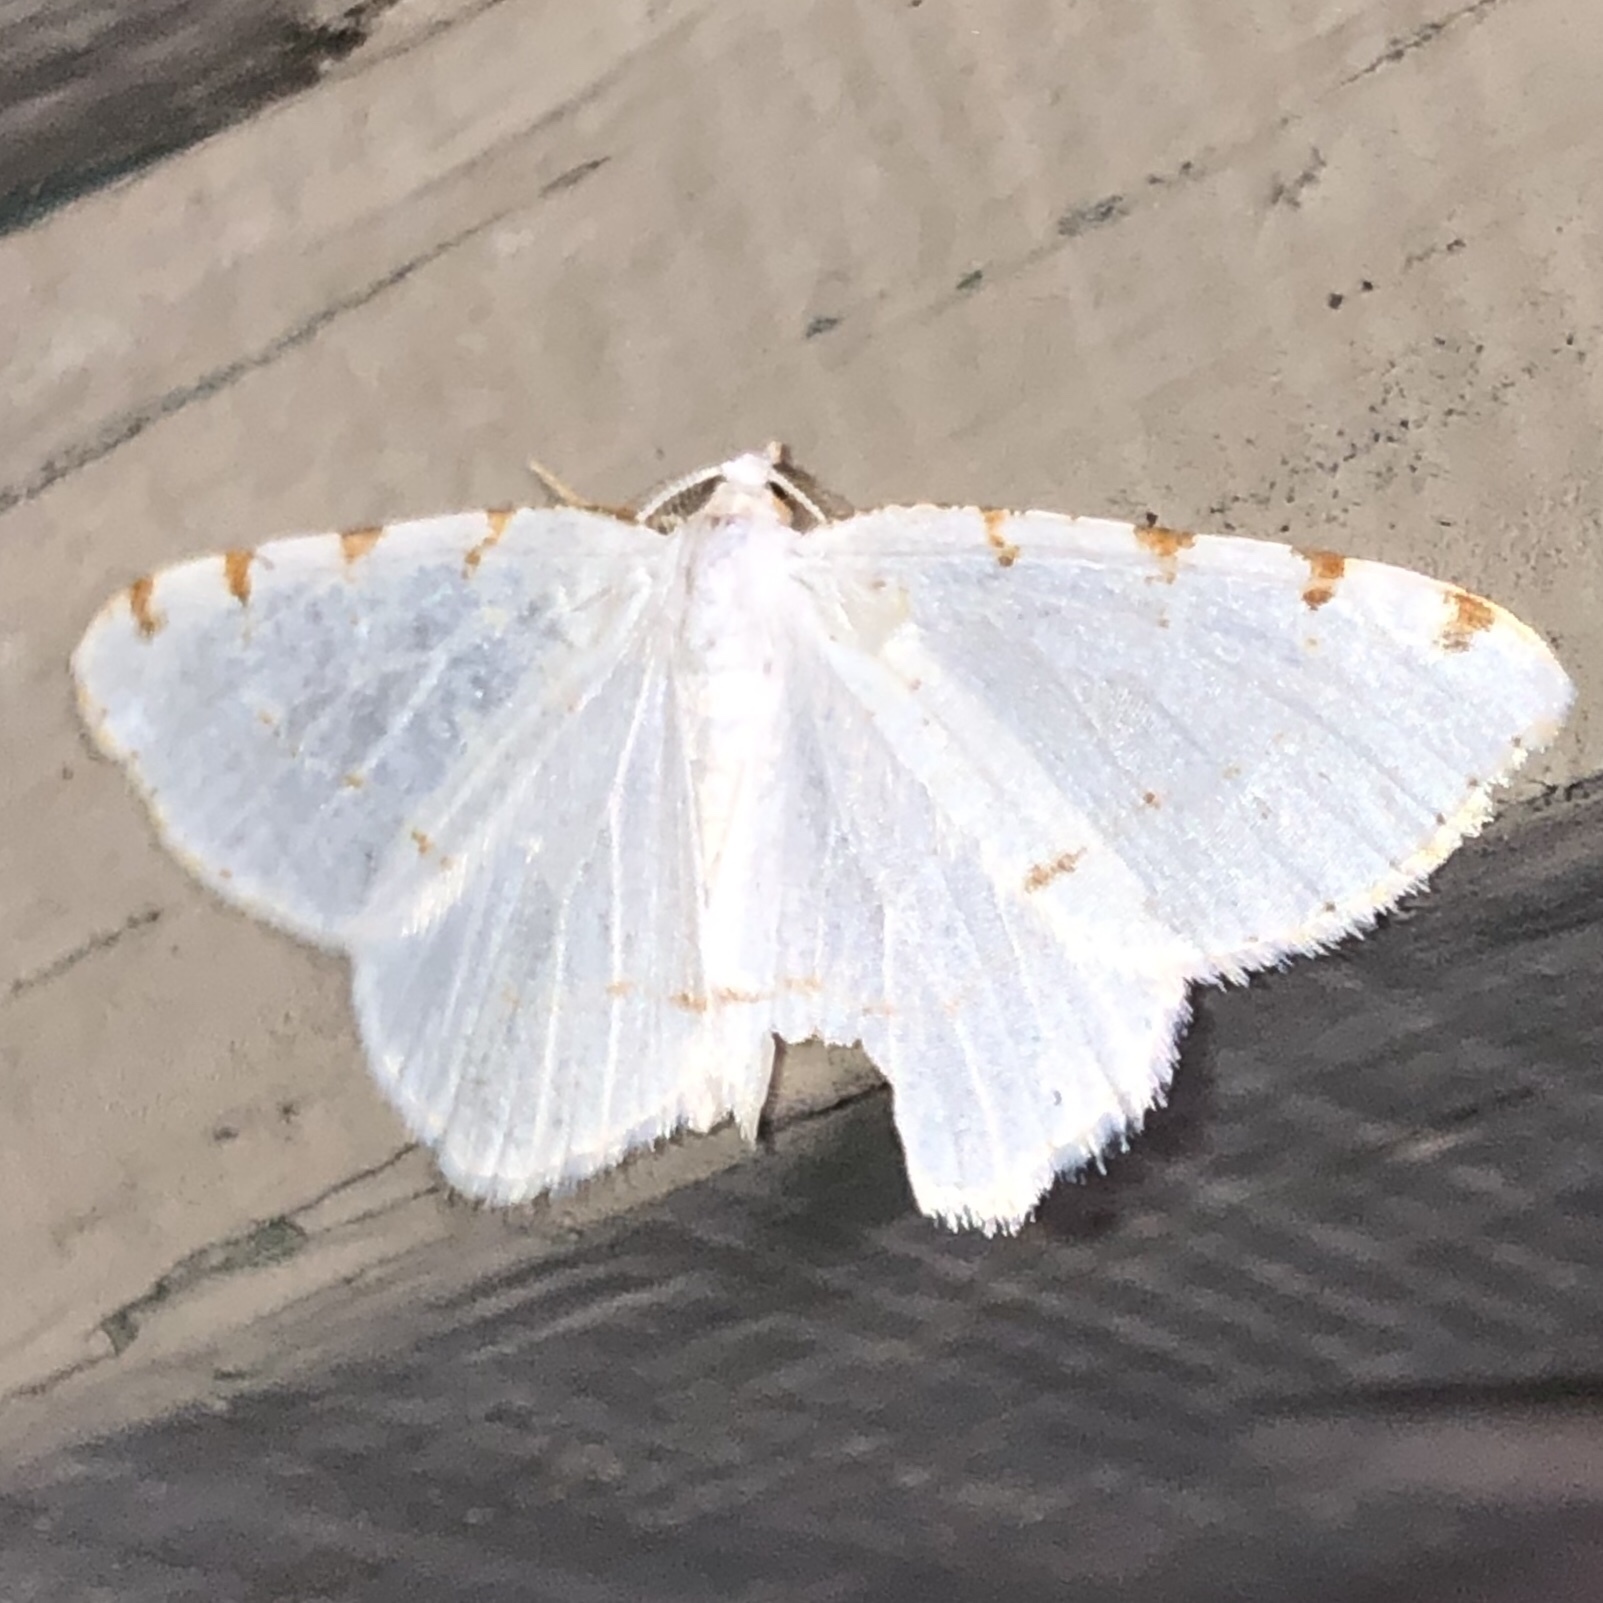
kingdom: Animalia
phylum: Arthropoda
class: Insecta
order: Lepidoptera
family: Geometridae
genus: Macaria
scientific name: Macaria pustularia
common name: Lesser maple spanworm moth
